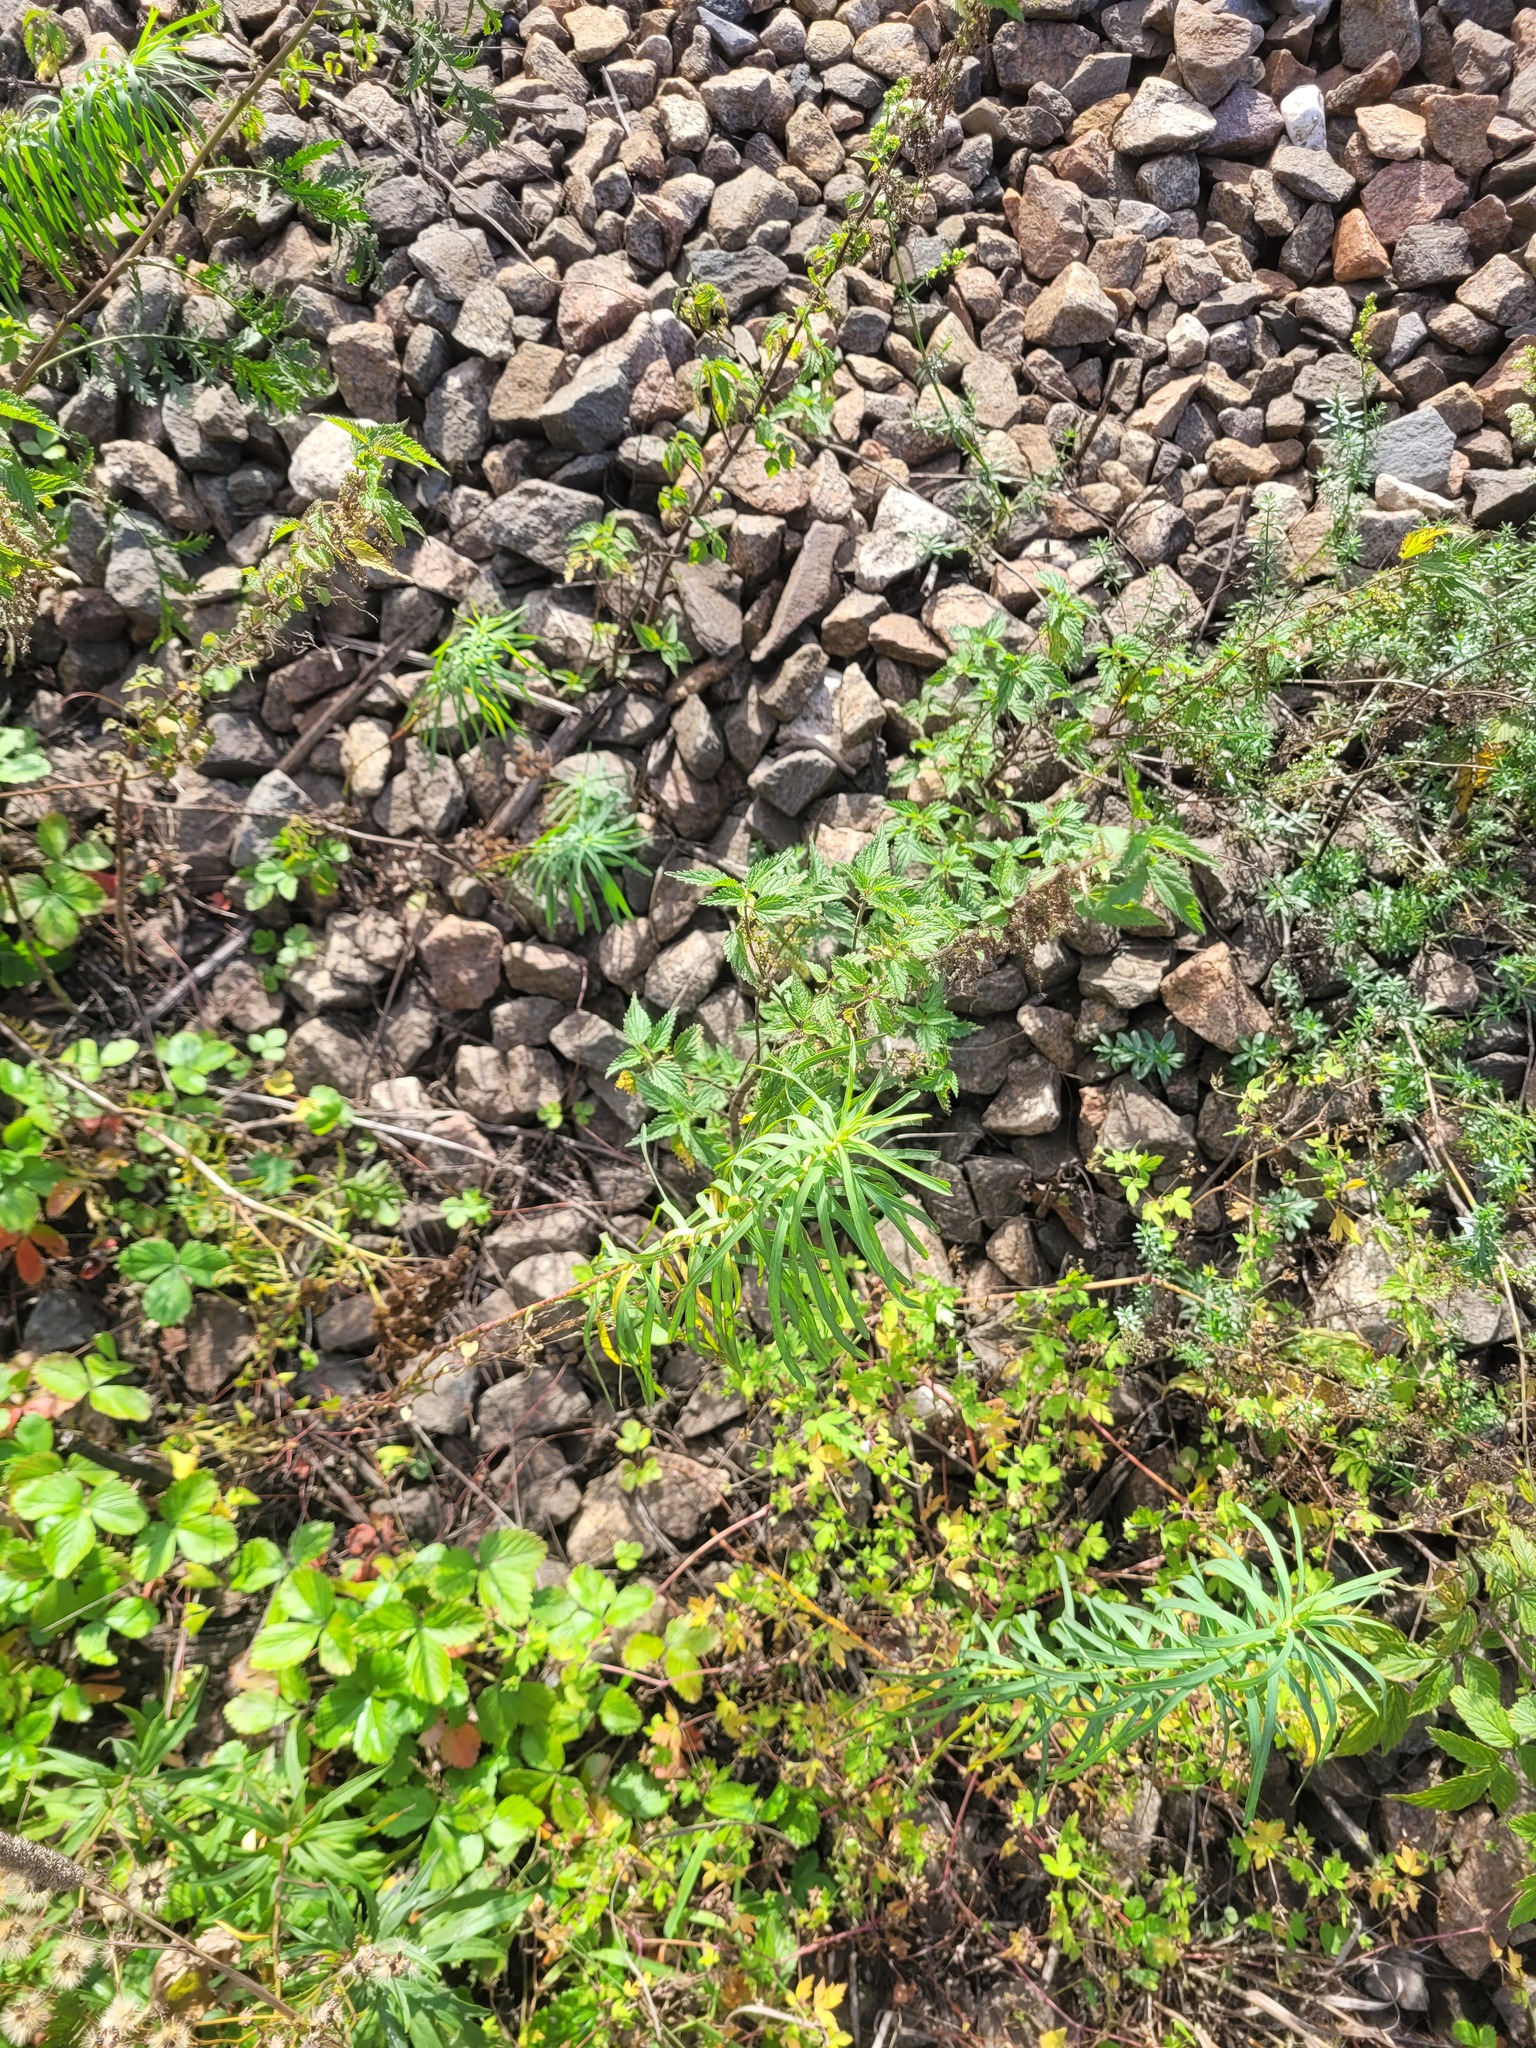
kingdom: Plantae
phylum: Tracheophyta
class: Magnoliopsida
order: Malpighiales
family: Euphorbiaceae
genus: Euphorbia
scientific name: Euphorbia virgata
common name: Leafy spurge
